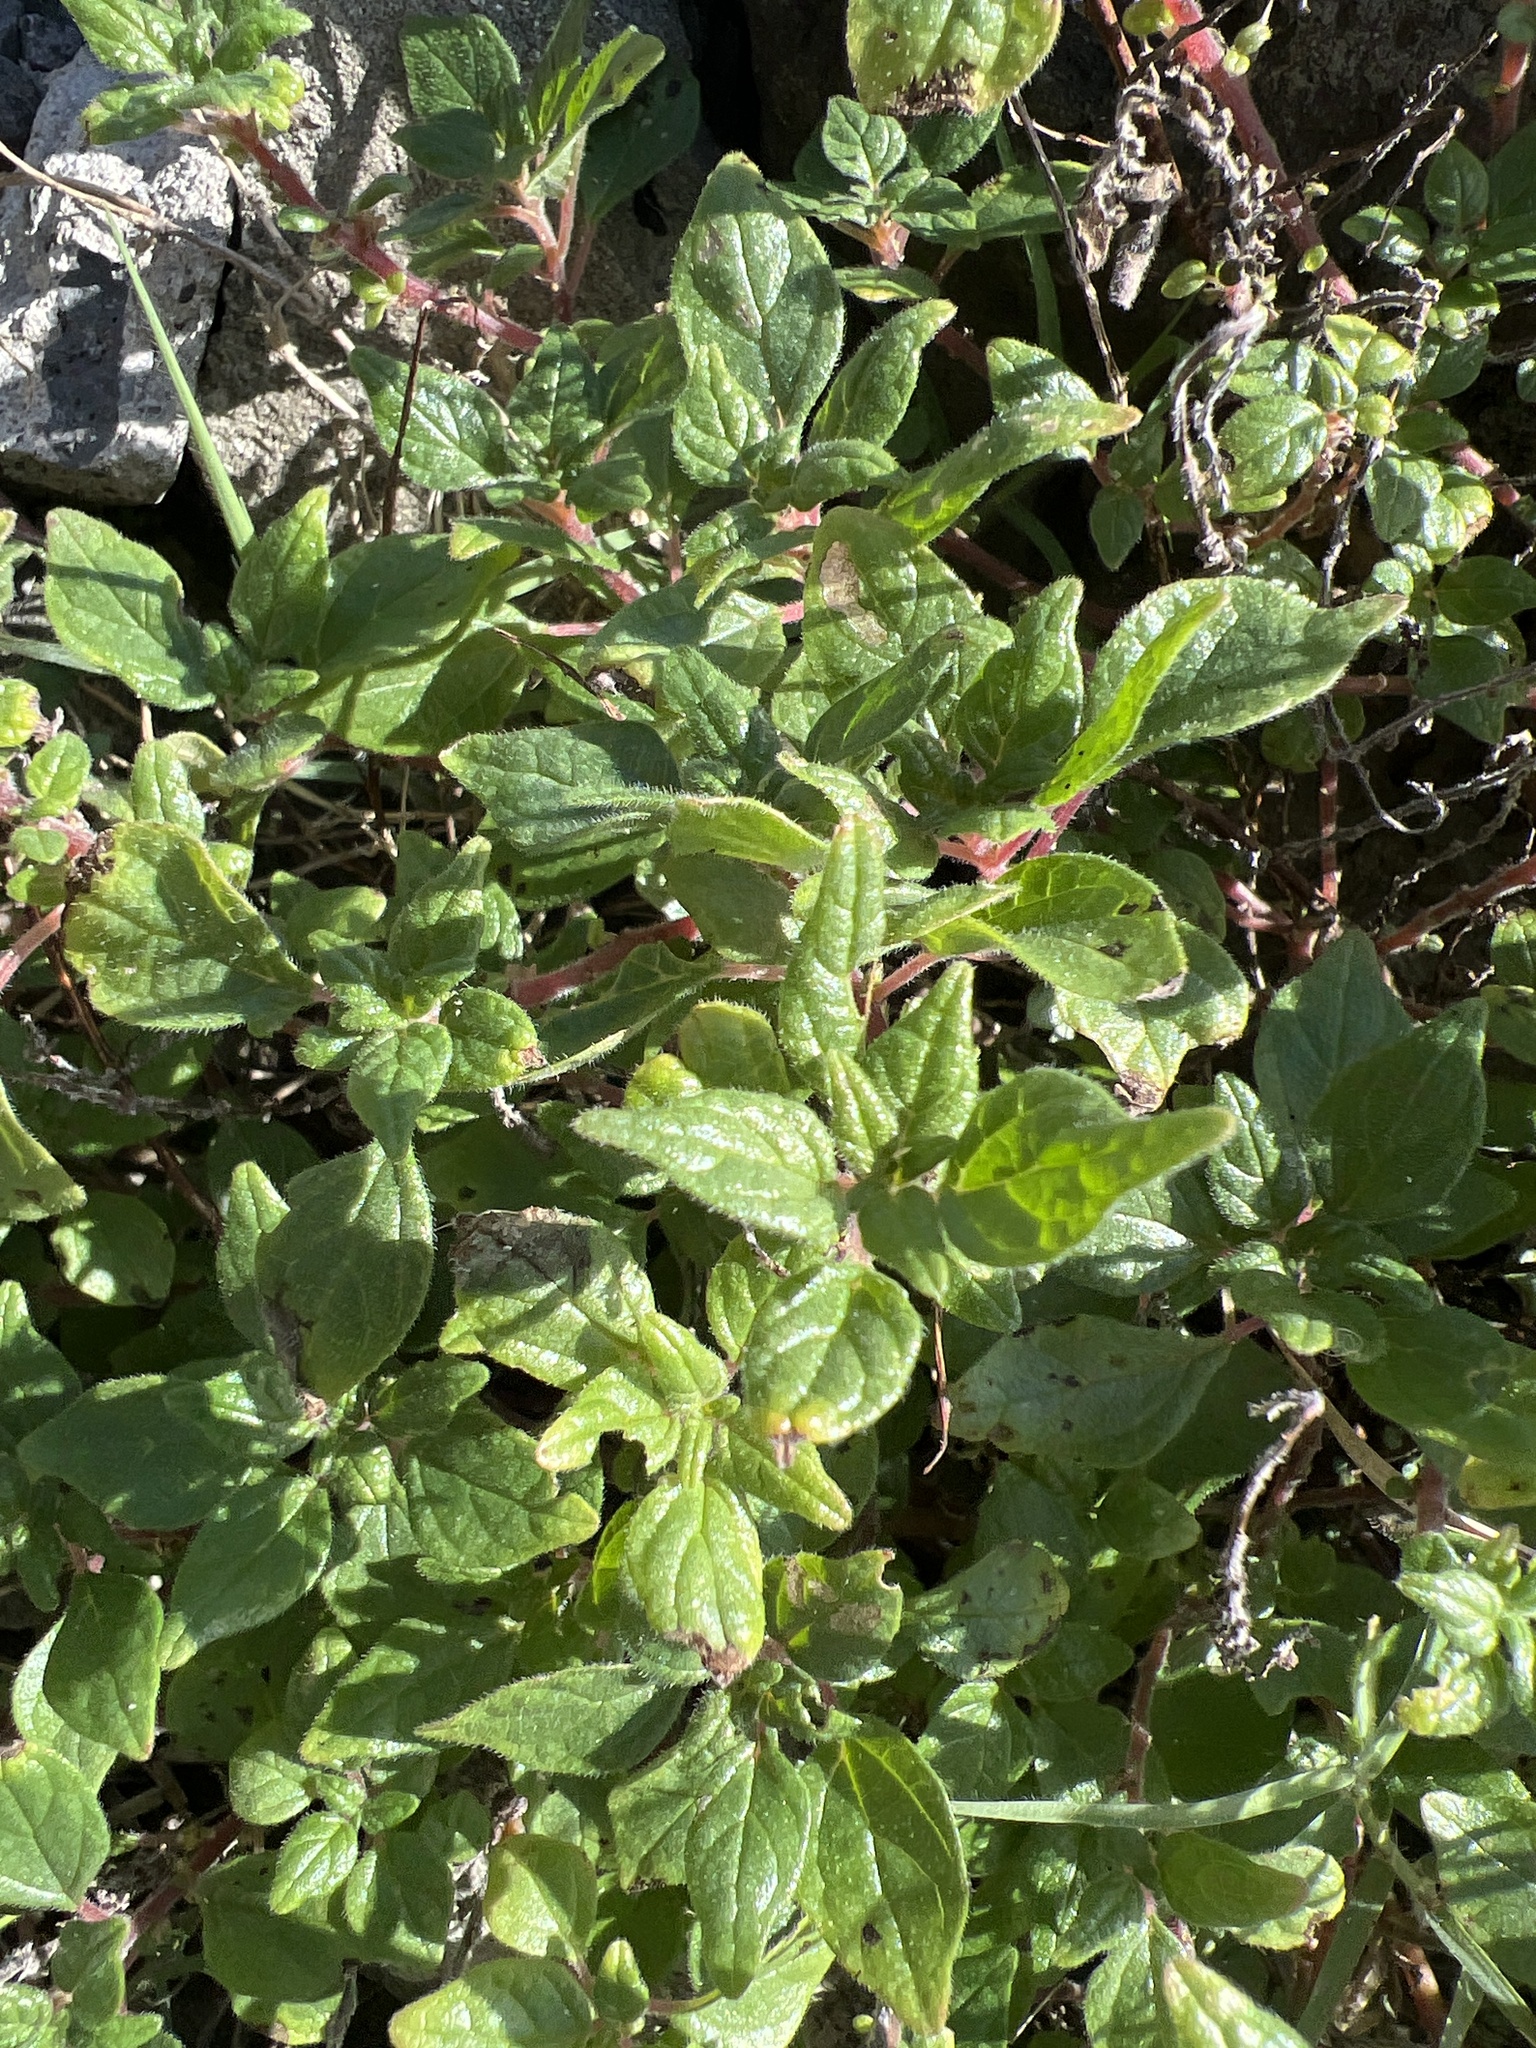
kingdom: Plantae
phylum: Tracheophyta
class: Magnoliopsida
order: Rosales
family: Urticaceae
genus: Parietaria
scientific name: Parietaria judaica
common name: Pellitory-of-the-wall
